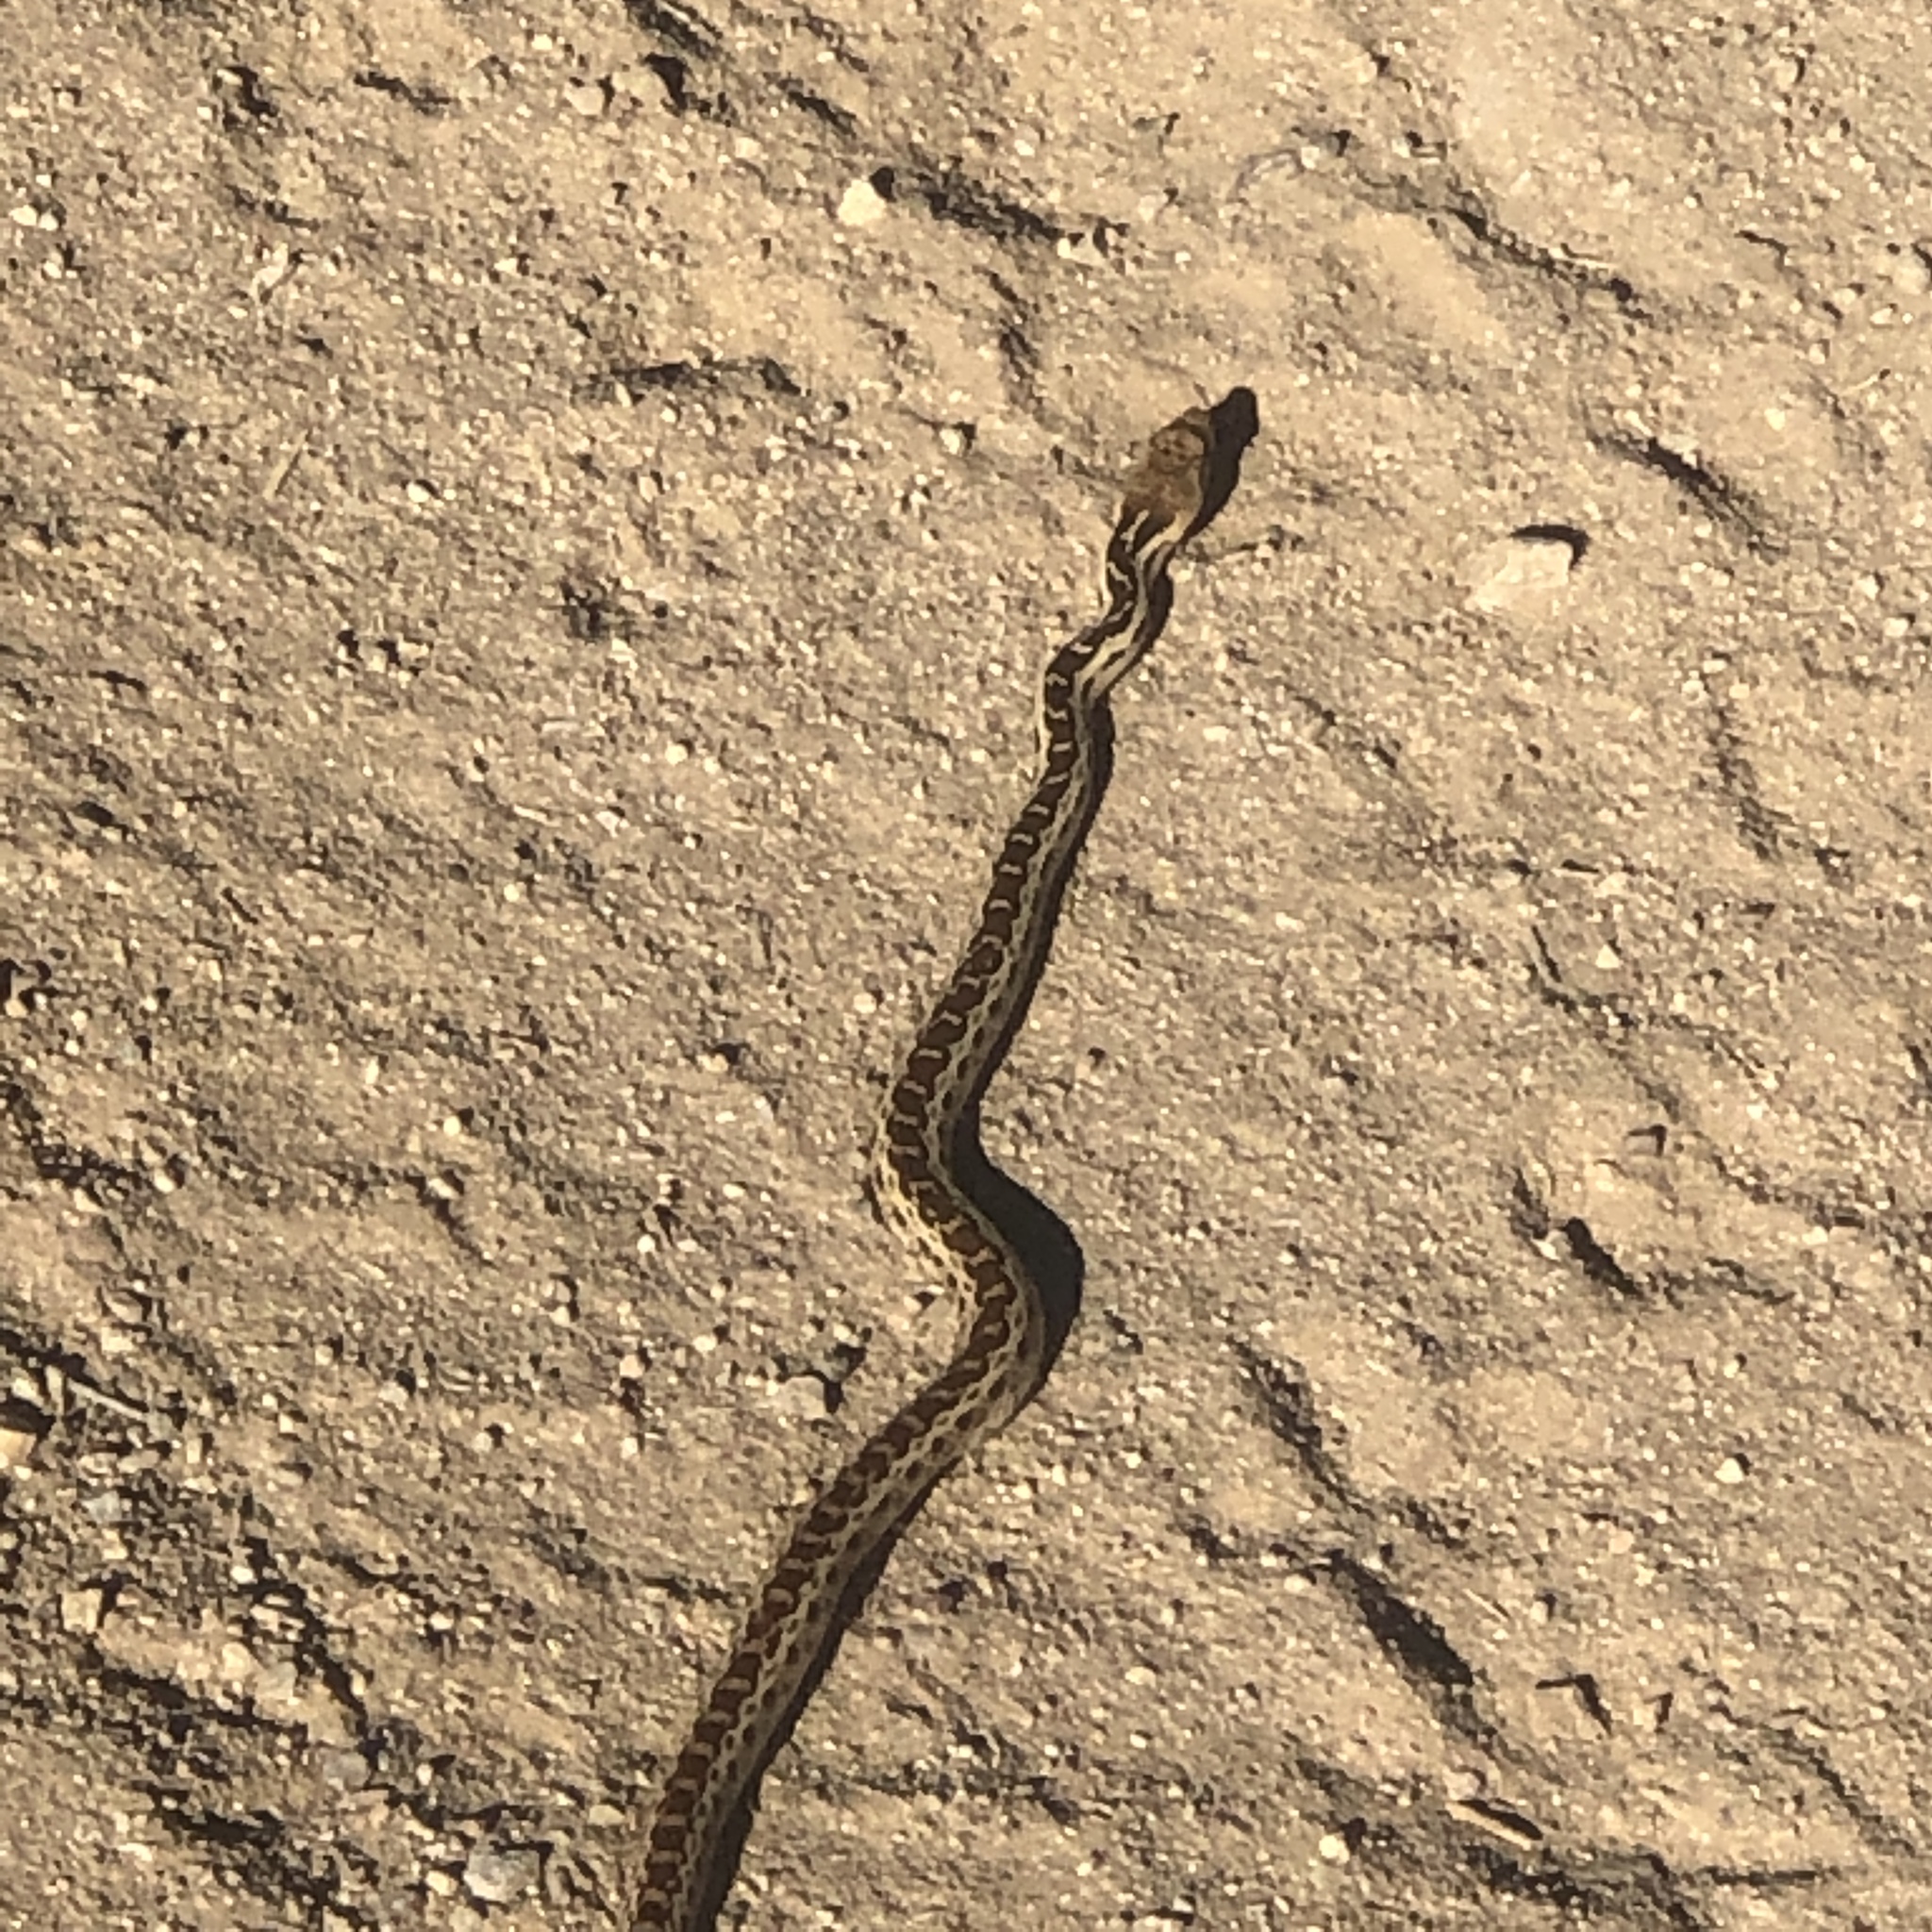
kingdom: Animalia
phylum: Chordata
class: Squamata
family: Colubridae
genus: Pituophis
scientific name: Pituophis catenifer
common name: Gopher snake
